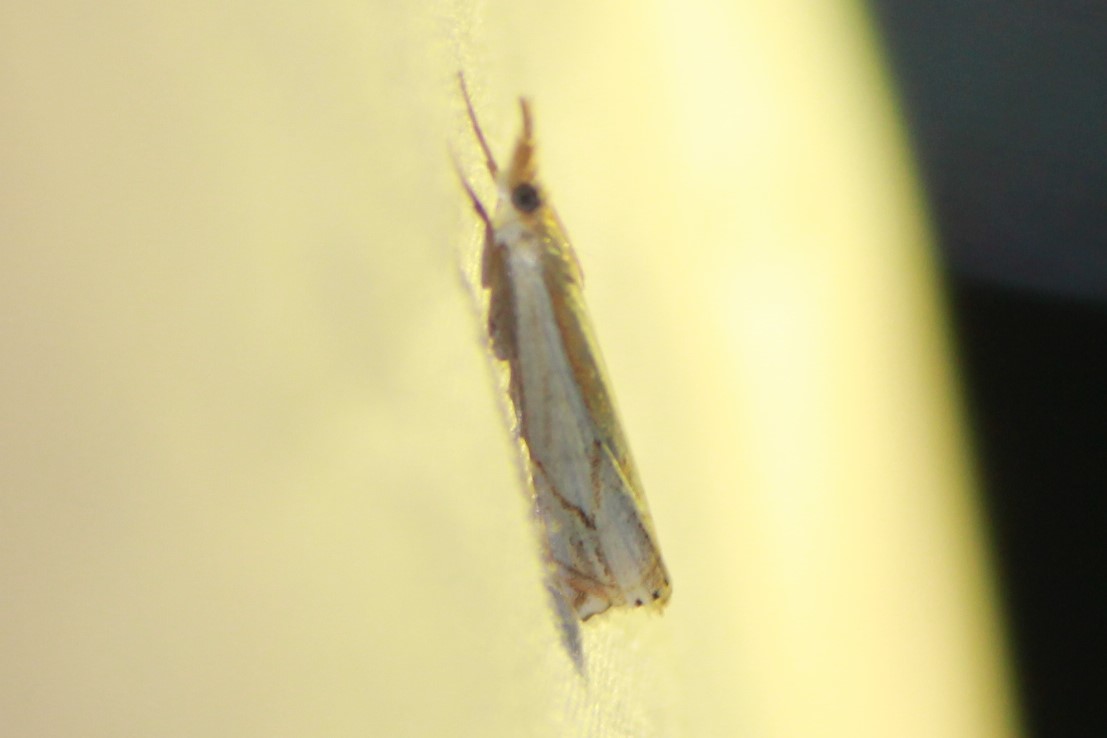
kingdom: Animalia
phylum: Arthropoda
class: Insecta
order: Lepidoptera
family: Crambidae
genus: Crambus
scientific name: Crambus agitatellus
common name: Double-banded grass-veneer
